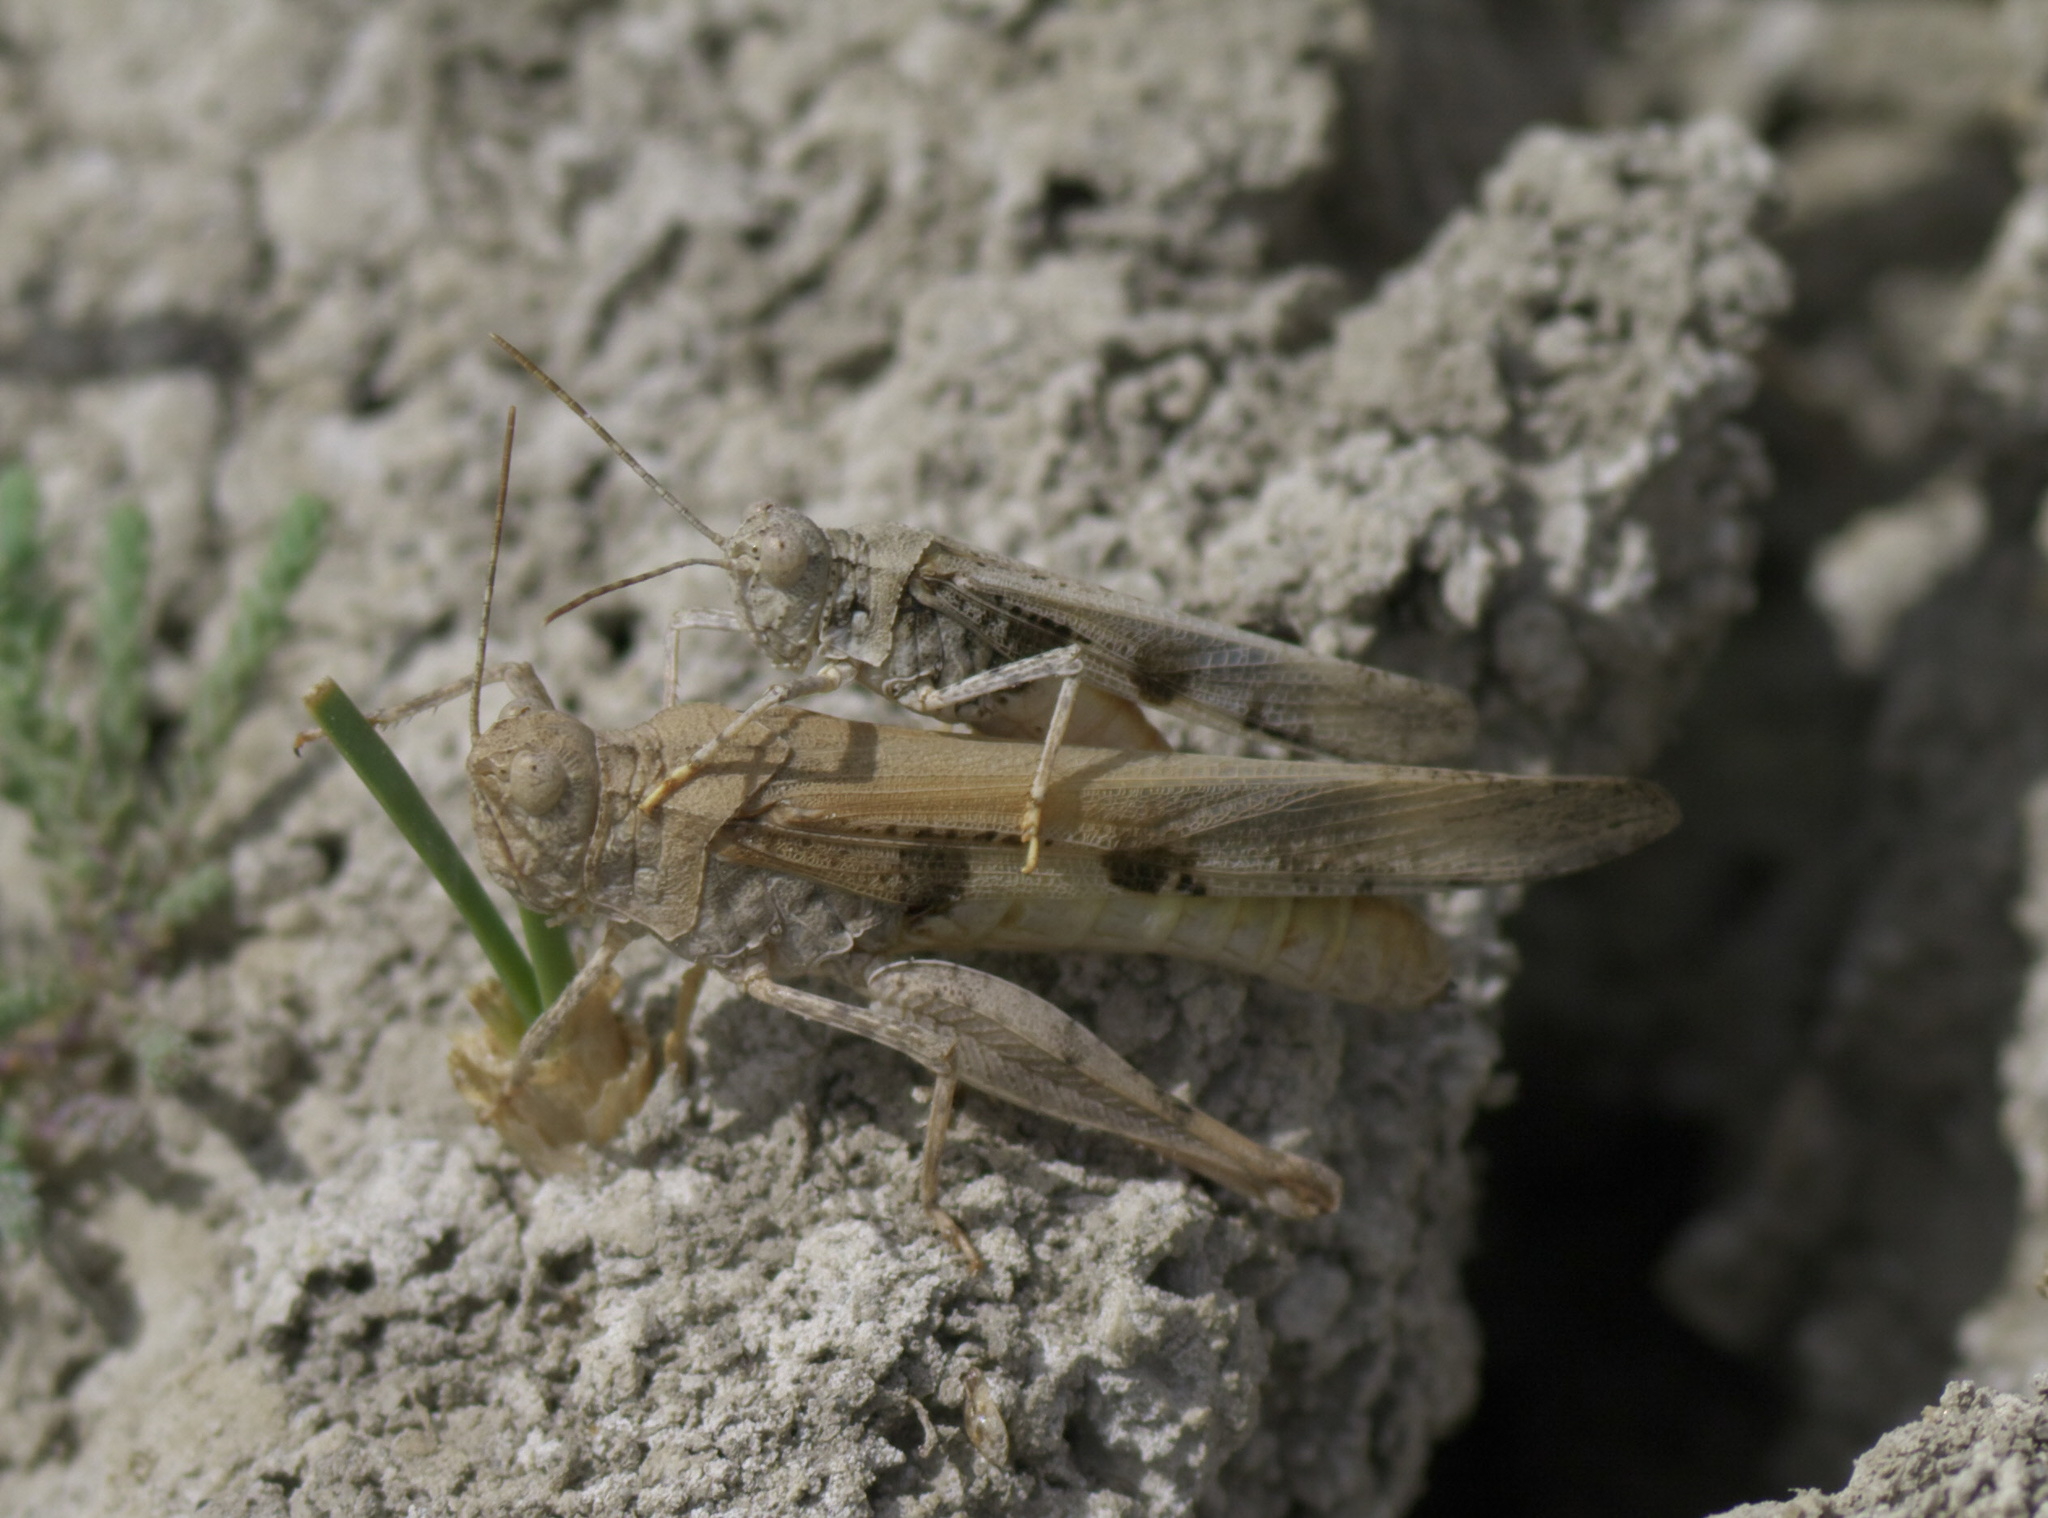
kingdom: Animalia
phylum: Arthropoda
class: Insecta
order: Orthoptera
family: Acrididae
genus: Conozoa
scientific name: Conozoa sulcifrons
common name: Groove-headed grasshopper
